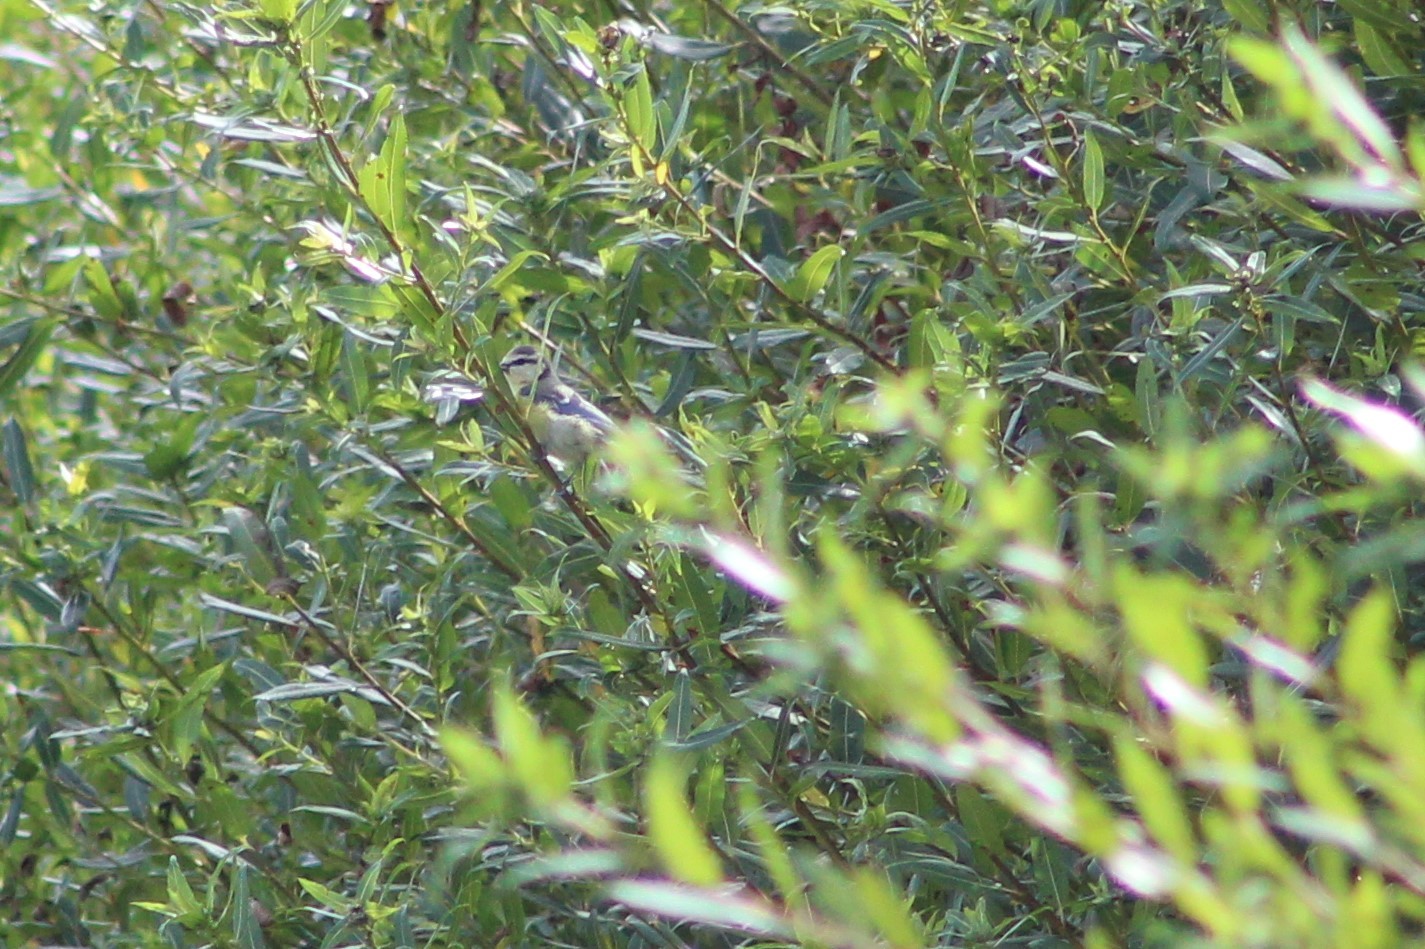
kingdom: Animalia
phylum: Chordata
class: Aves
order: Passeriformes
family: Paridae
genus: Cyanistes
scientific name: Cyanistes caeruleus
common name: Eurasian blue tit
